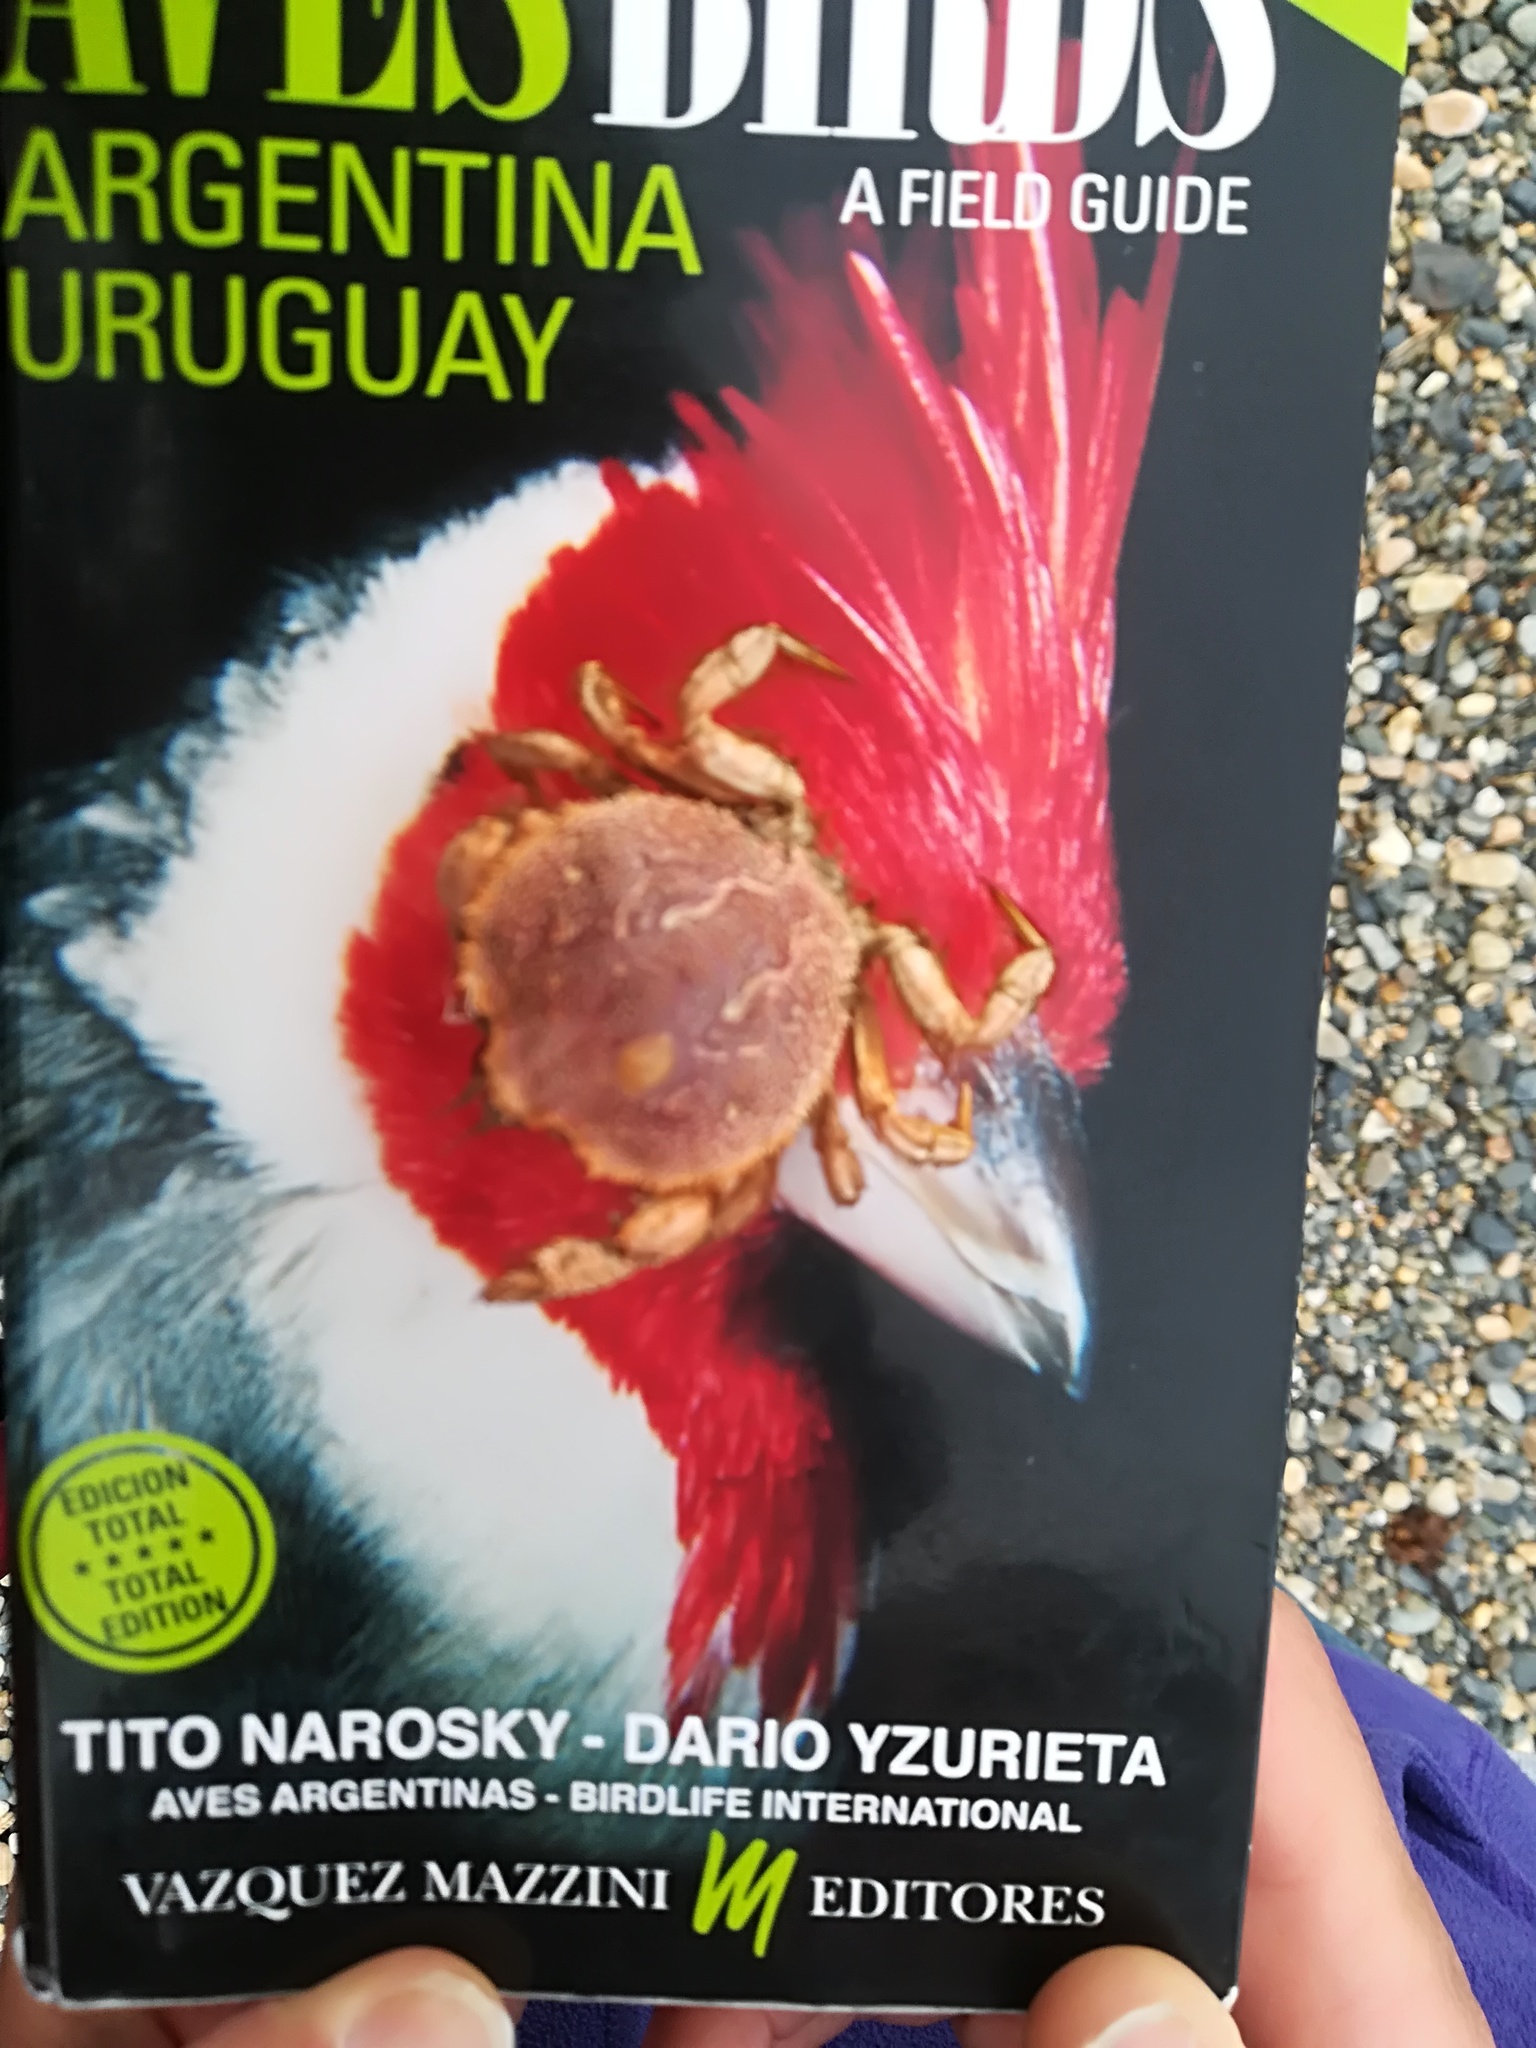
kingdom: Animalia
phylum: Arthropoda
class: Malacostraca
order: Decapoda
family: Trichopeltariidae
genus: Peltarion
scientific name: Peltarion spinulosum
